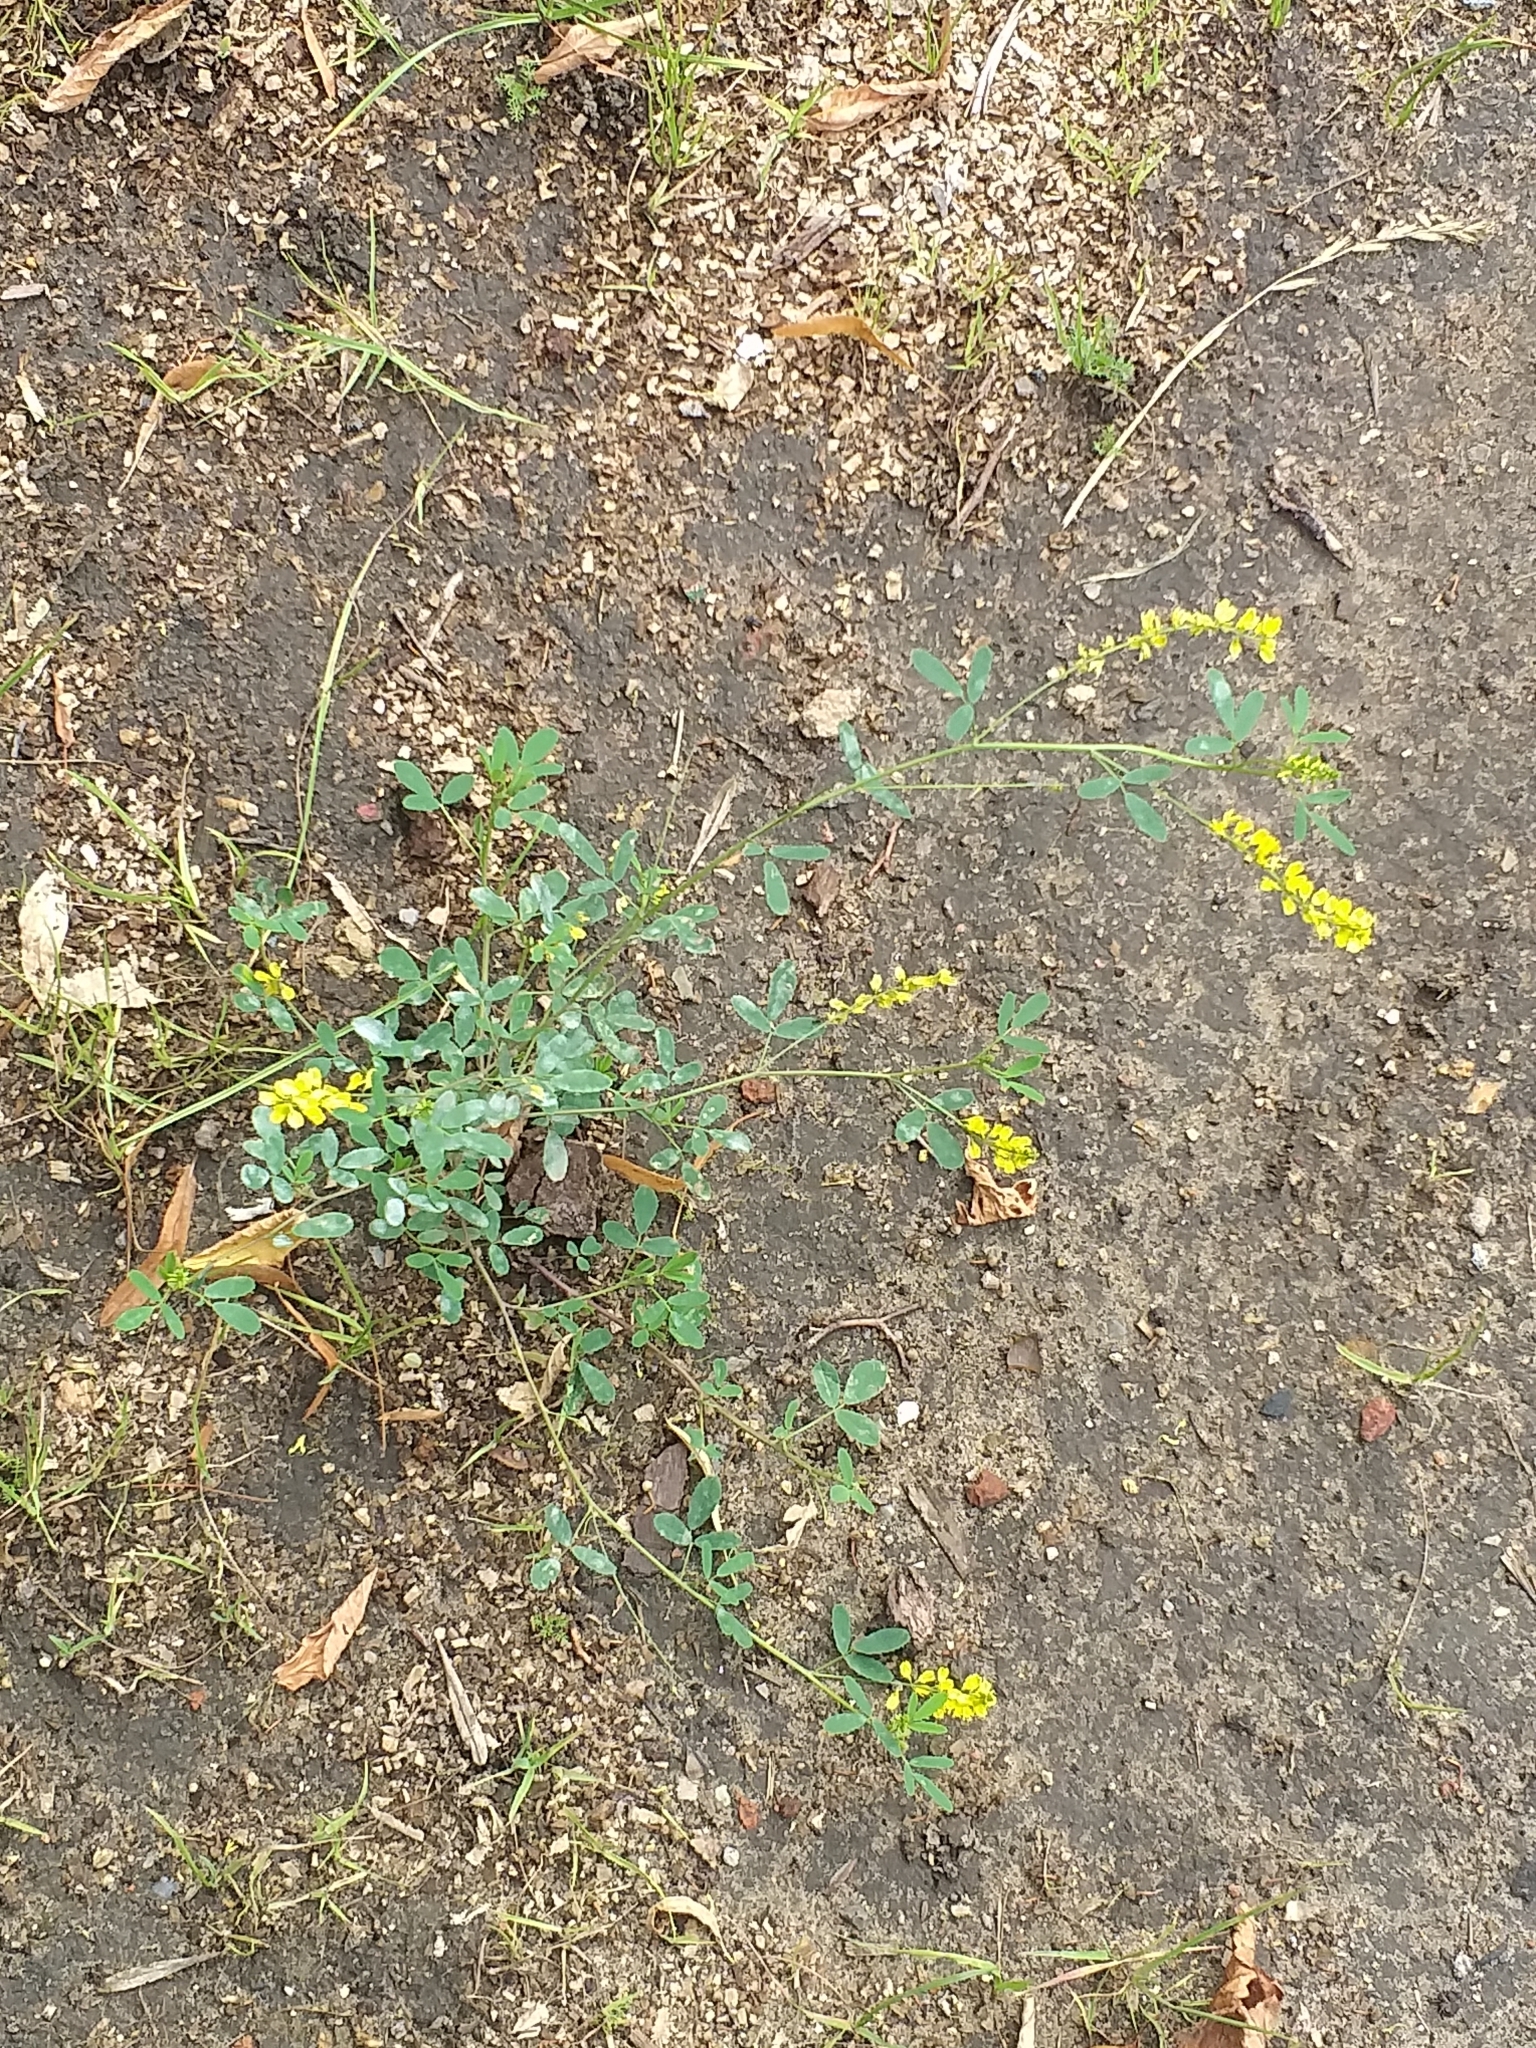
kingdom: Plantae
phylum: Tracheophyta
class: Magnoliopsida
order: Fabales
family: Fabaceae
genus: Melilotus
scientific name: Melilotus officinalis
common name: Sweetclover
